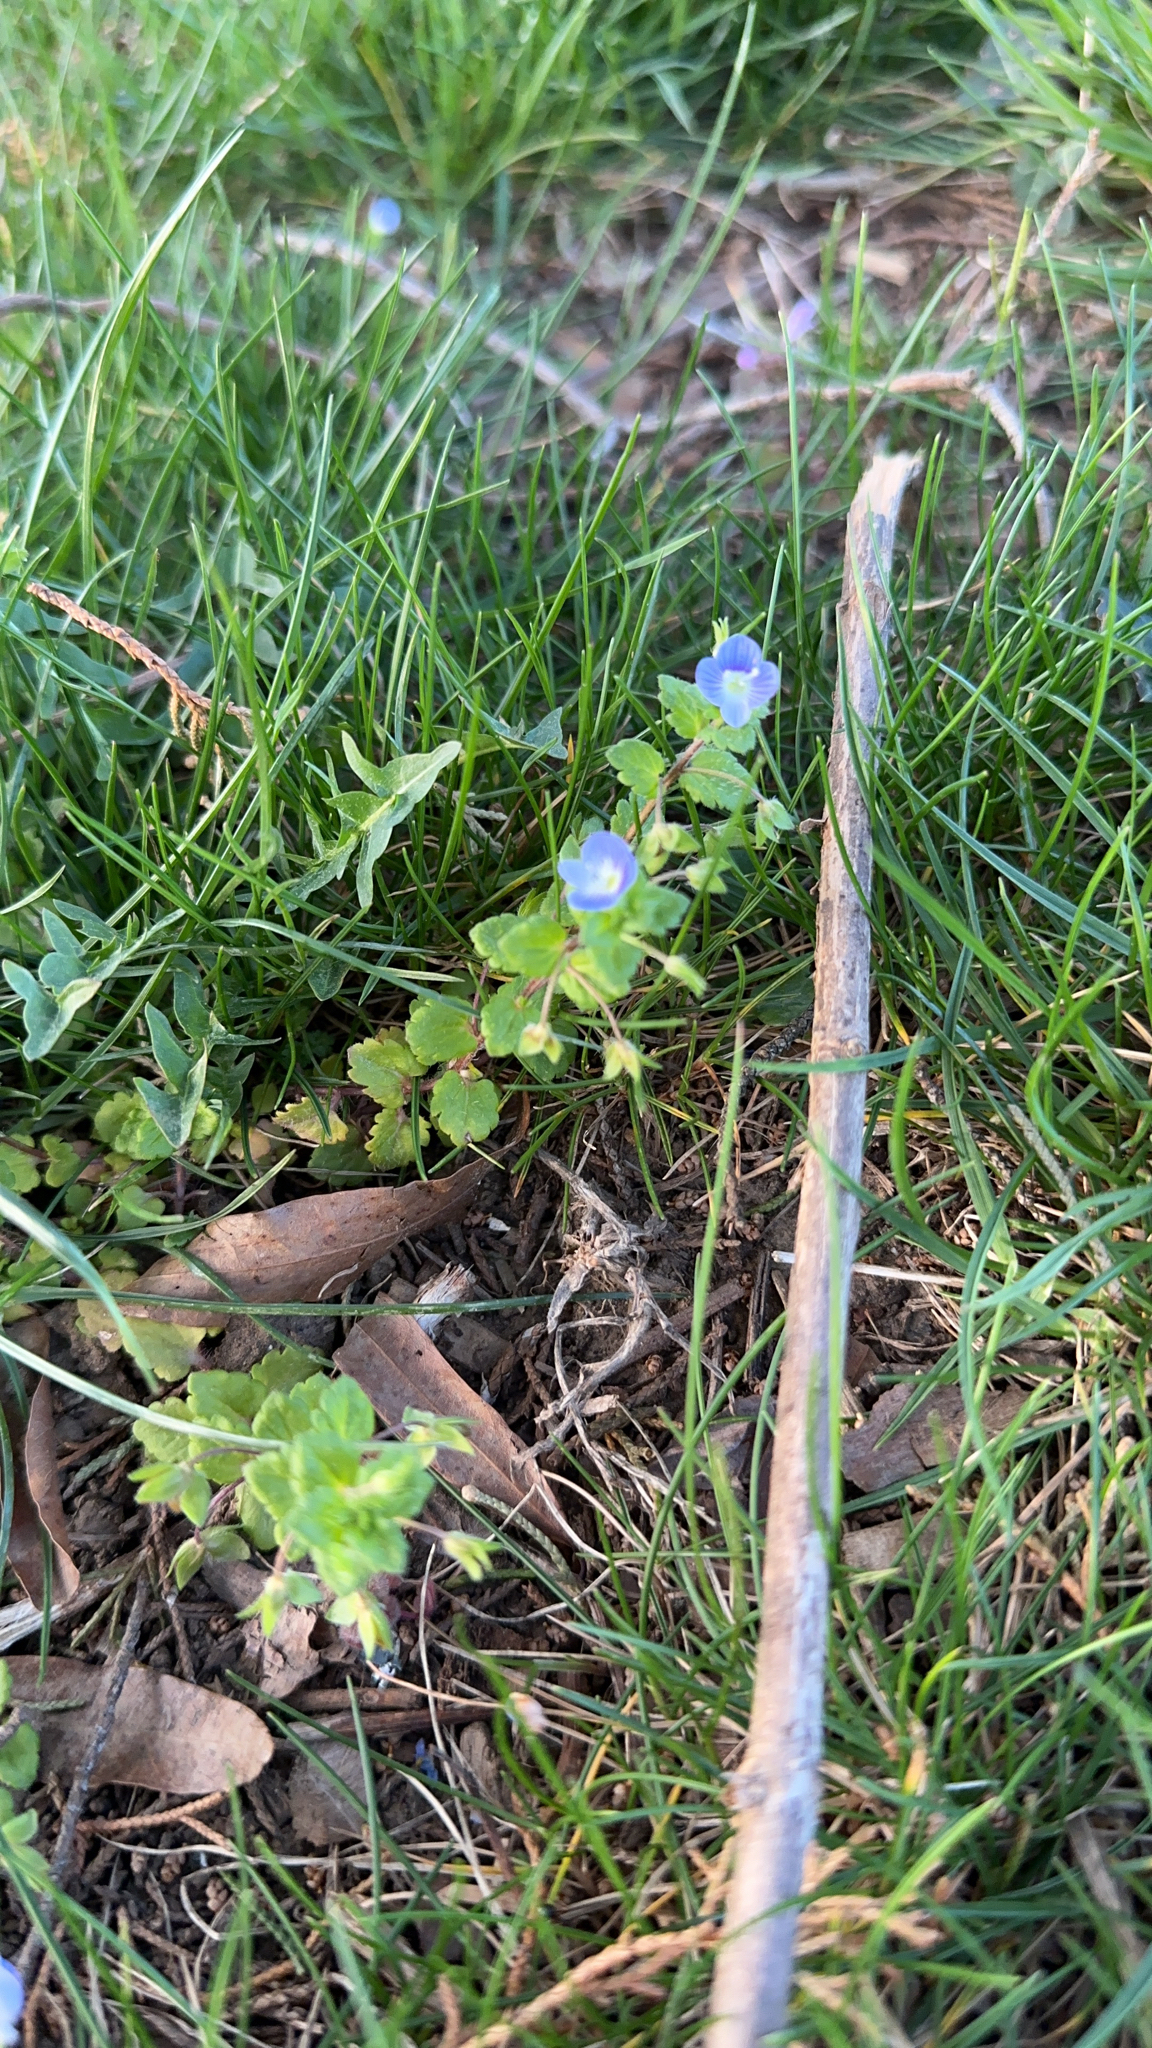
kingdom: Plantae
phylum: Tracheophyta
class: Magnoliopsida
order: Lamiales
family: Plantaginaceae
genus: Veronica
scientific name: Veronica persica
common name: Common field-speedwell
